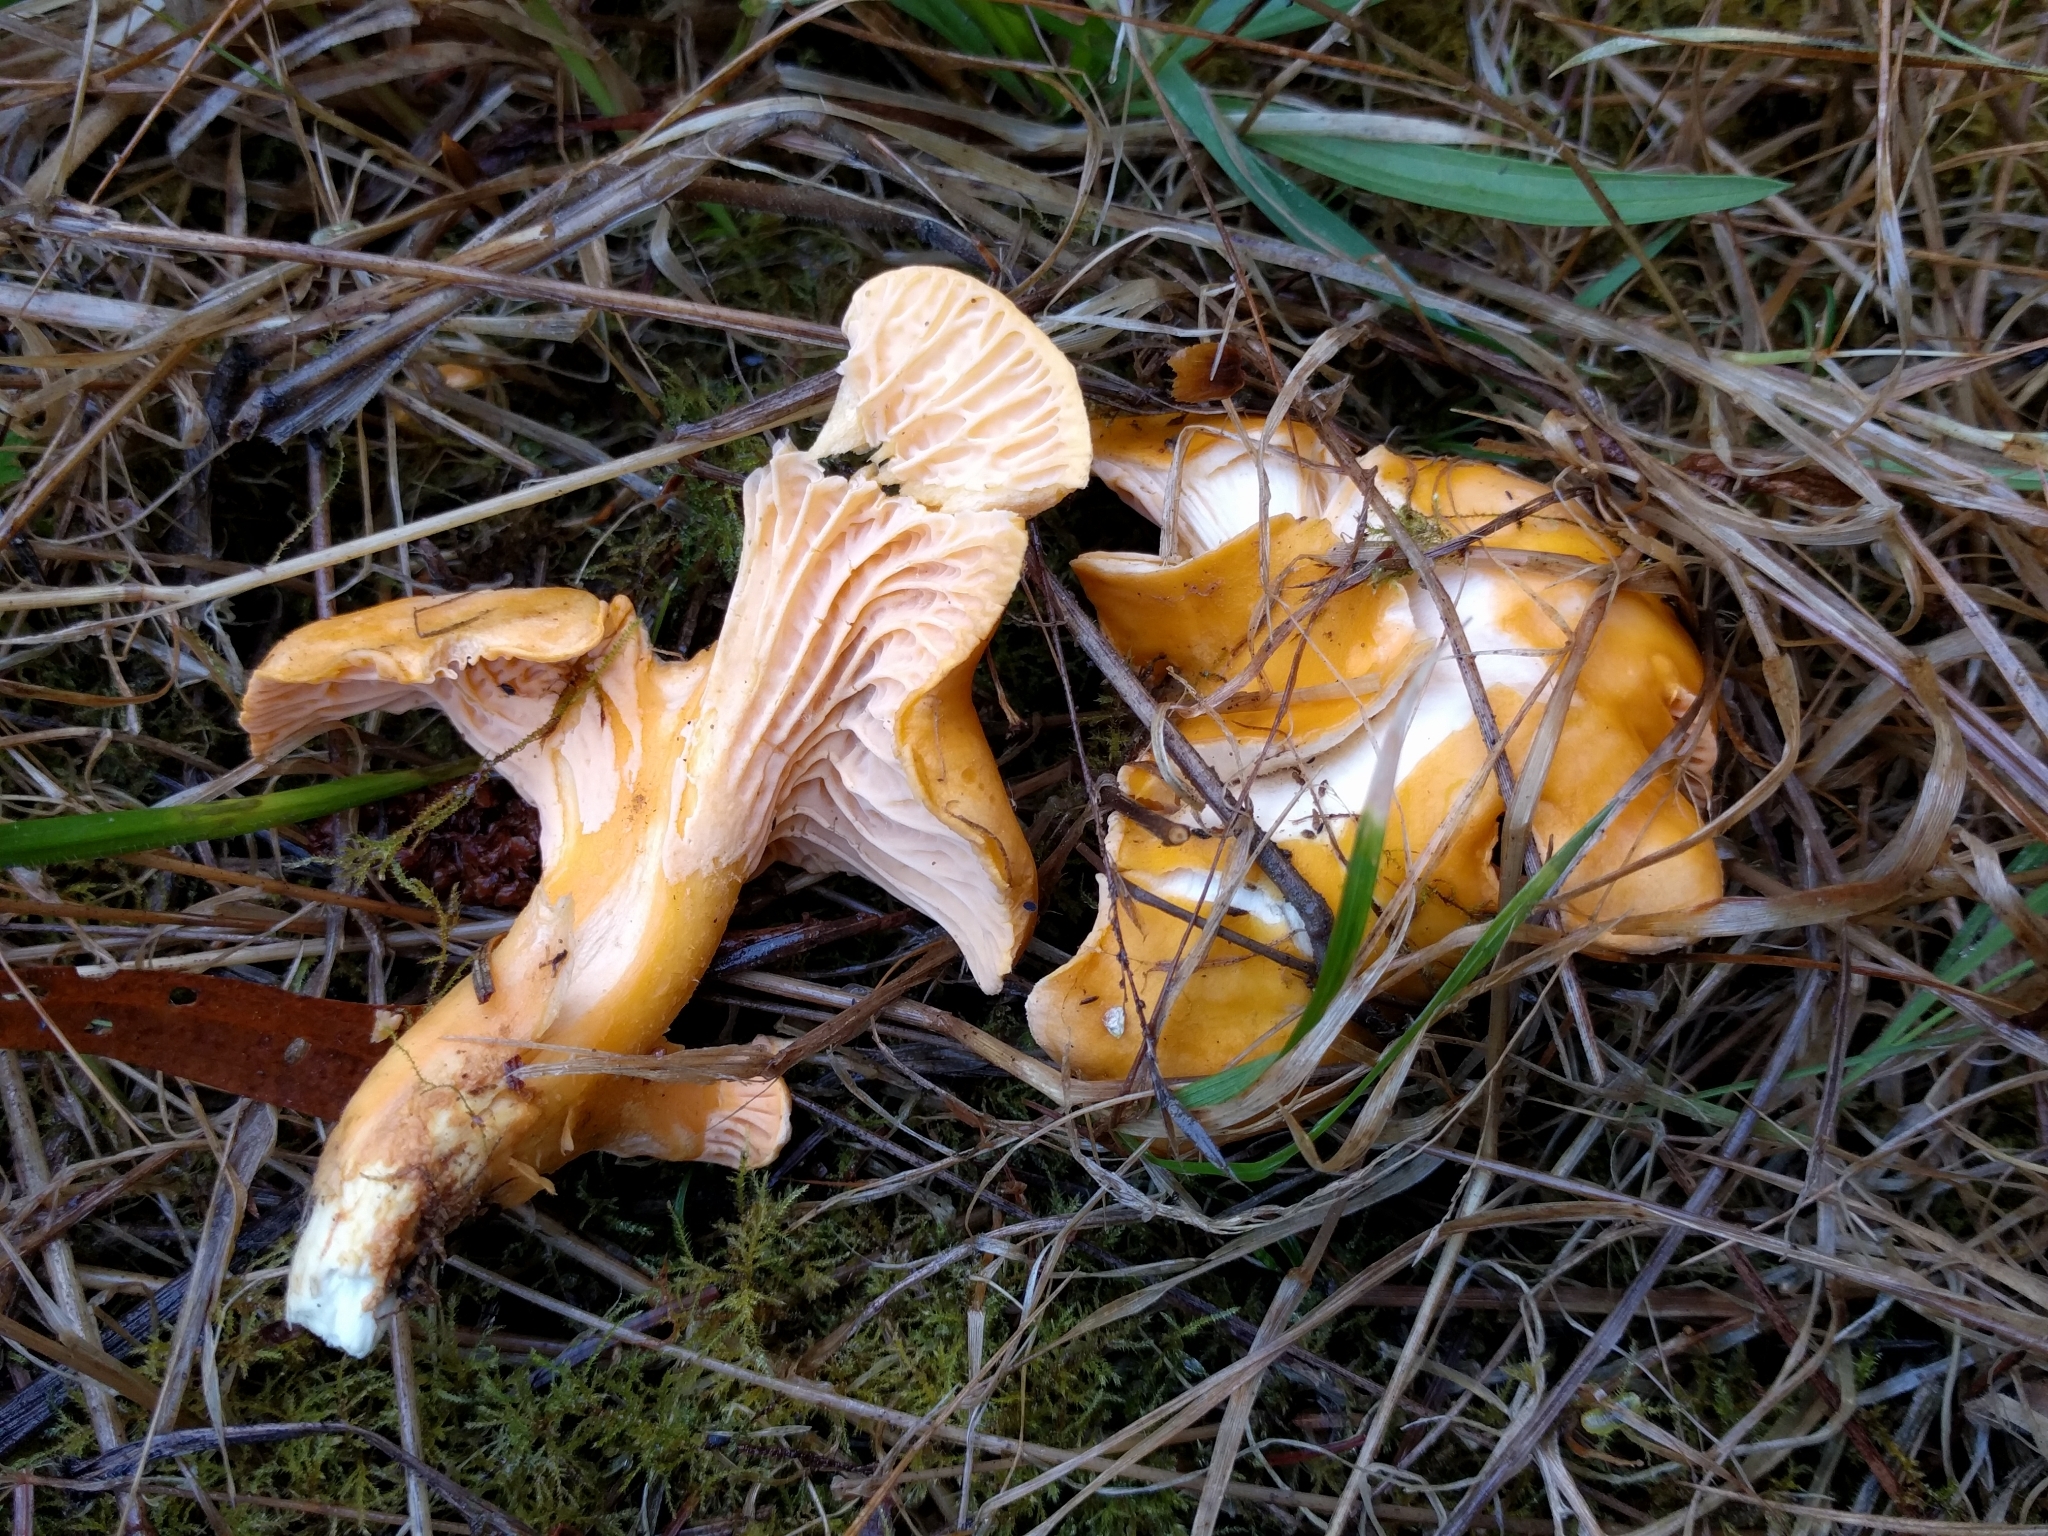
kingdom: Fungi
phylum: Basidiomycota
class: Agaricomycetes
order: Cantharellales
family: Hydnaceae
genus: Cantharellus
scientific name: Cantharellus formosus
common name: Pacific golden chanterelle
